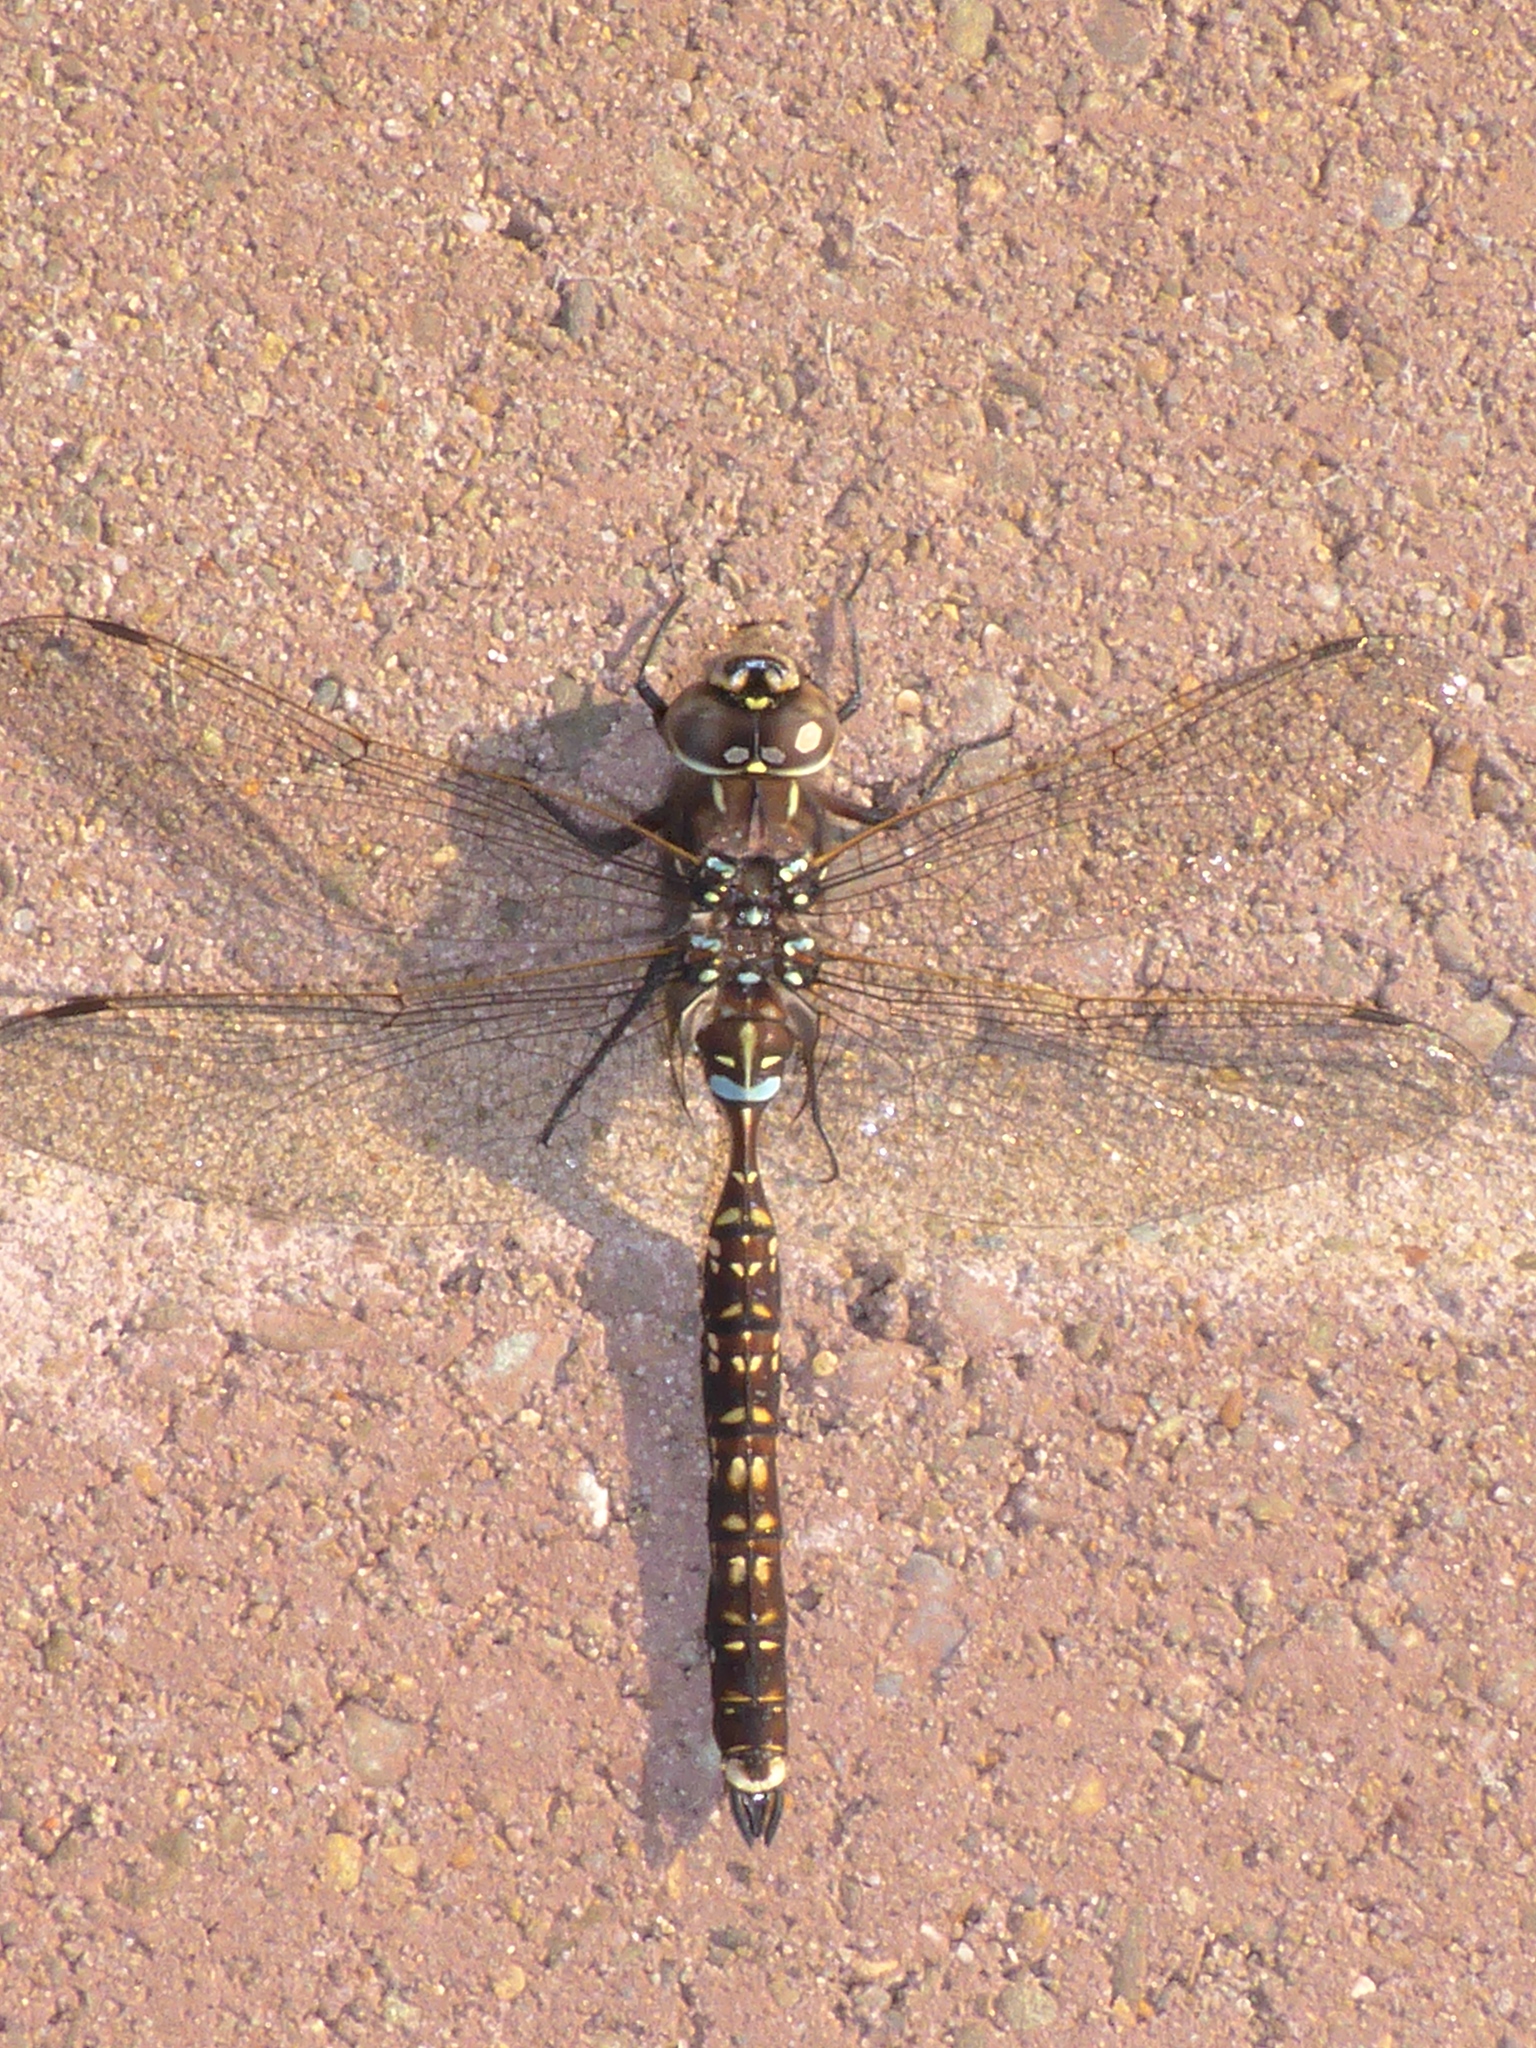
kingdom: Animalia
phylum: Arthropoda
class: Insecta
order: Odonata
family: Aeshnidae
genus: Aeshna
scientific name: Aeshna brevistyla
